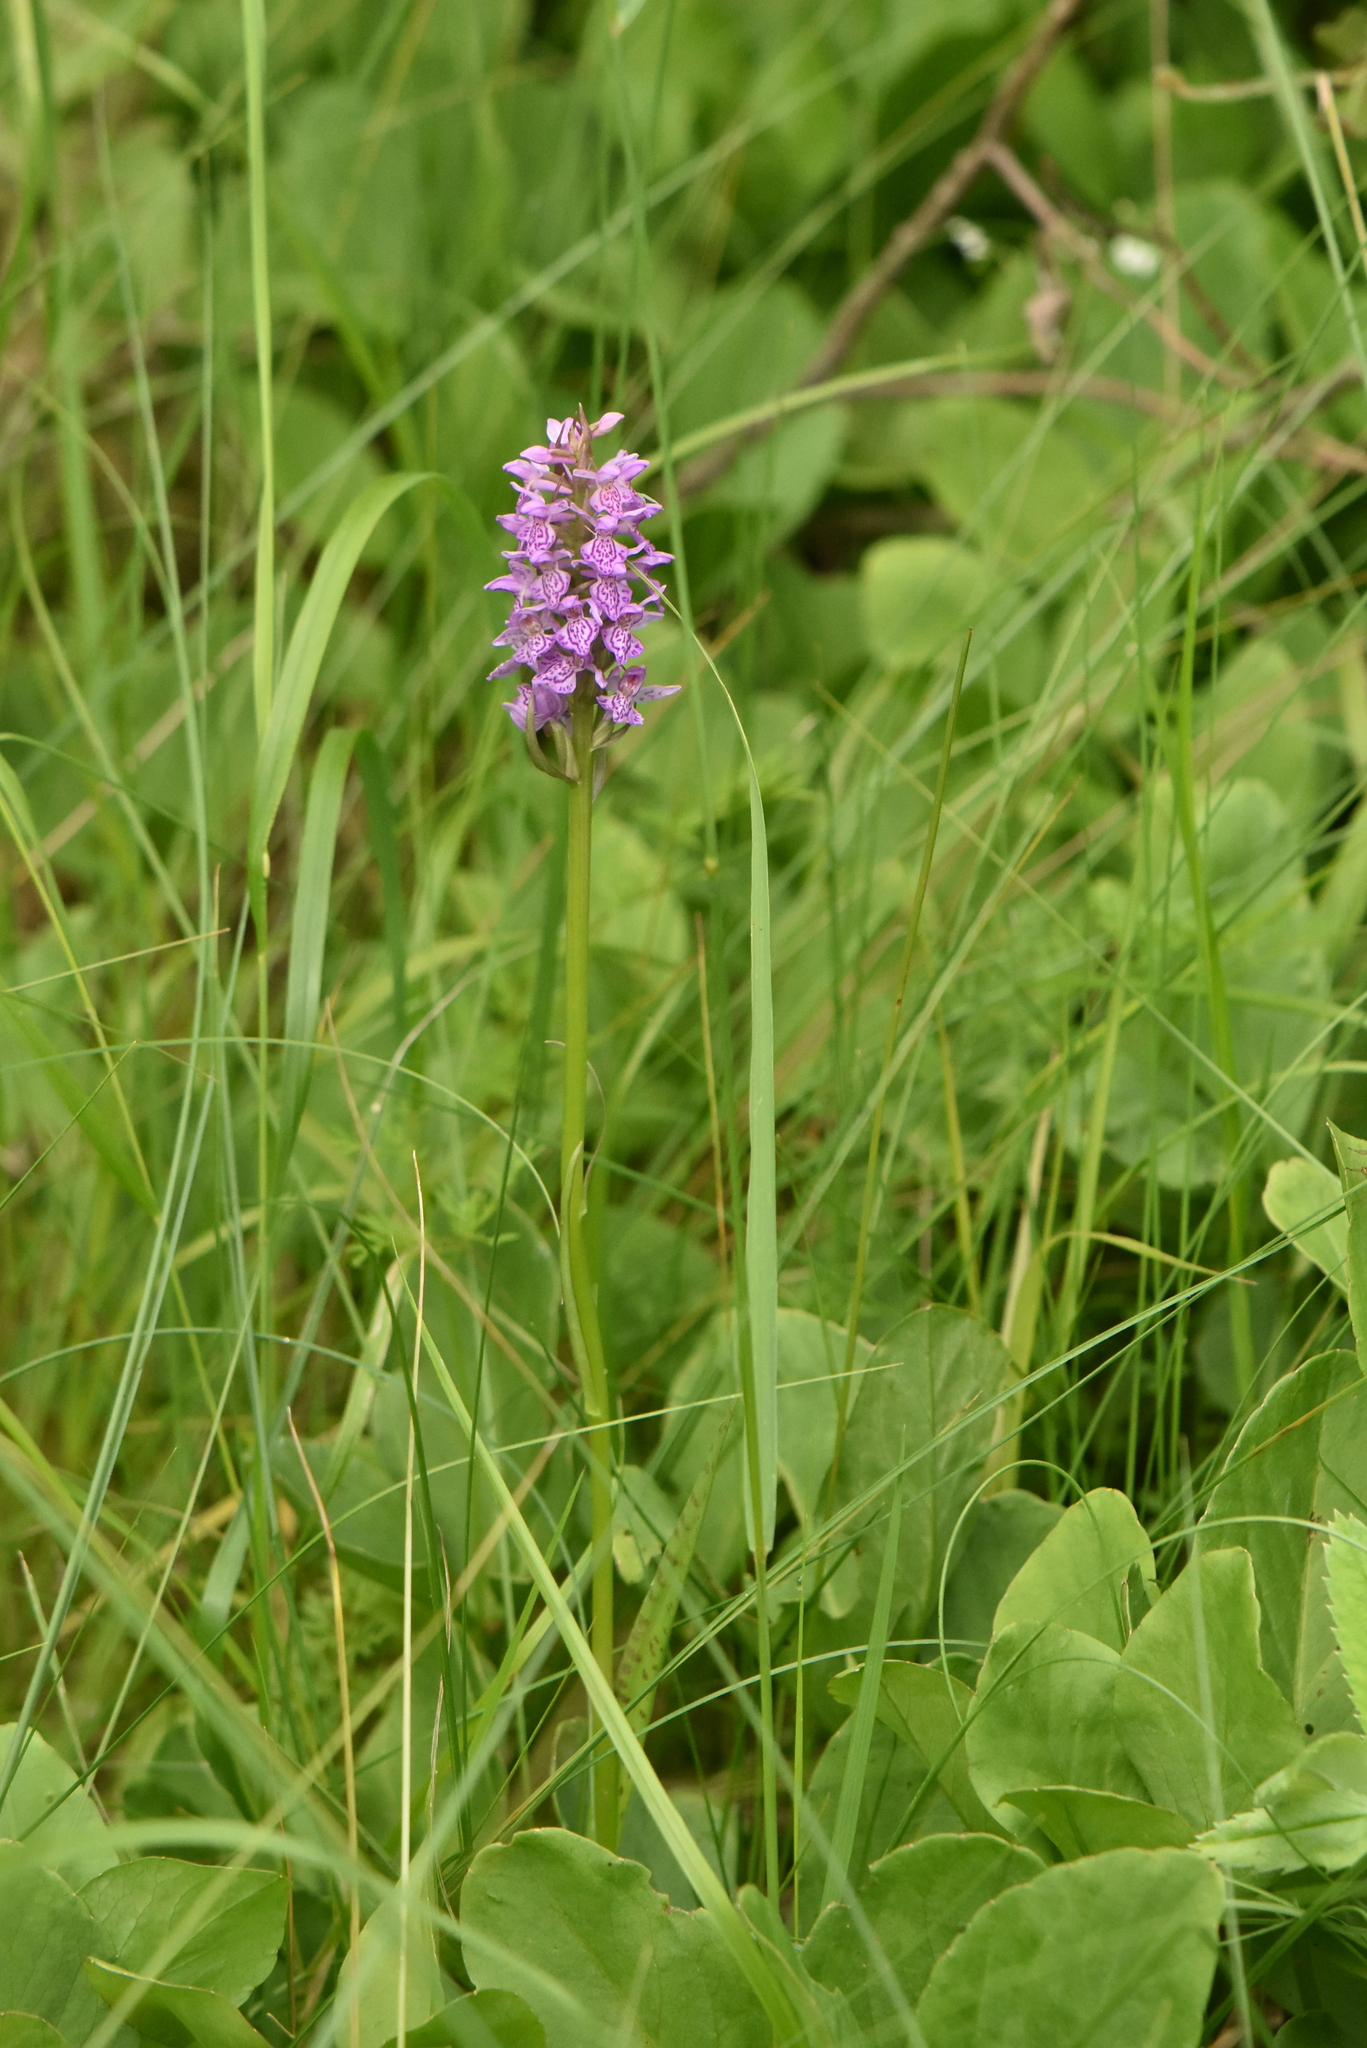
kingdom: Plantae
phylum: Tracheophyta
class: Liliopsida
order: Asparagales
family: Orchidaceae
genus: Dactylorhiza
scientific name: Dactylorhiza majalis
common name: Marsh orchid
